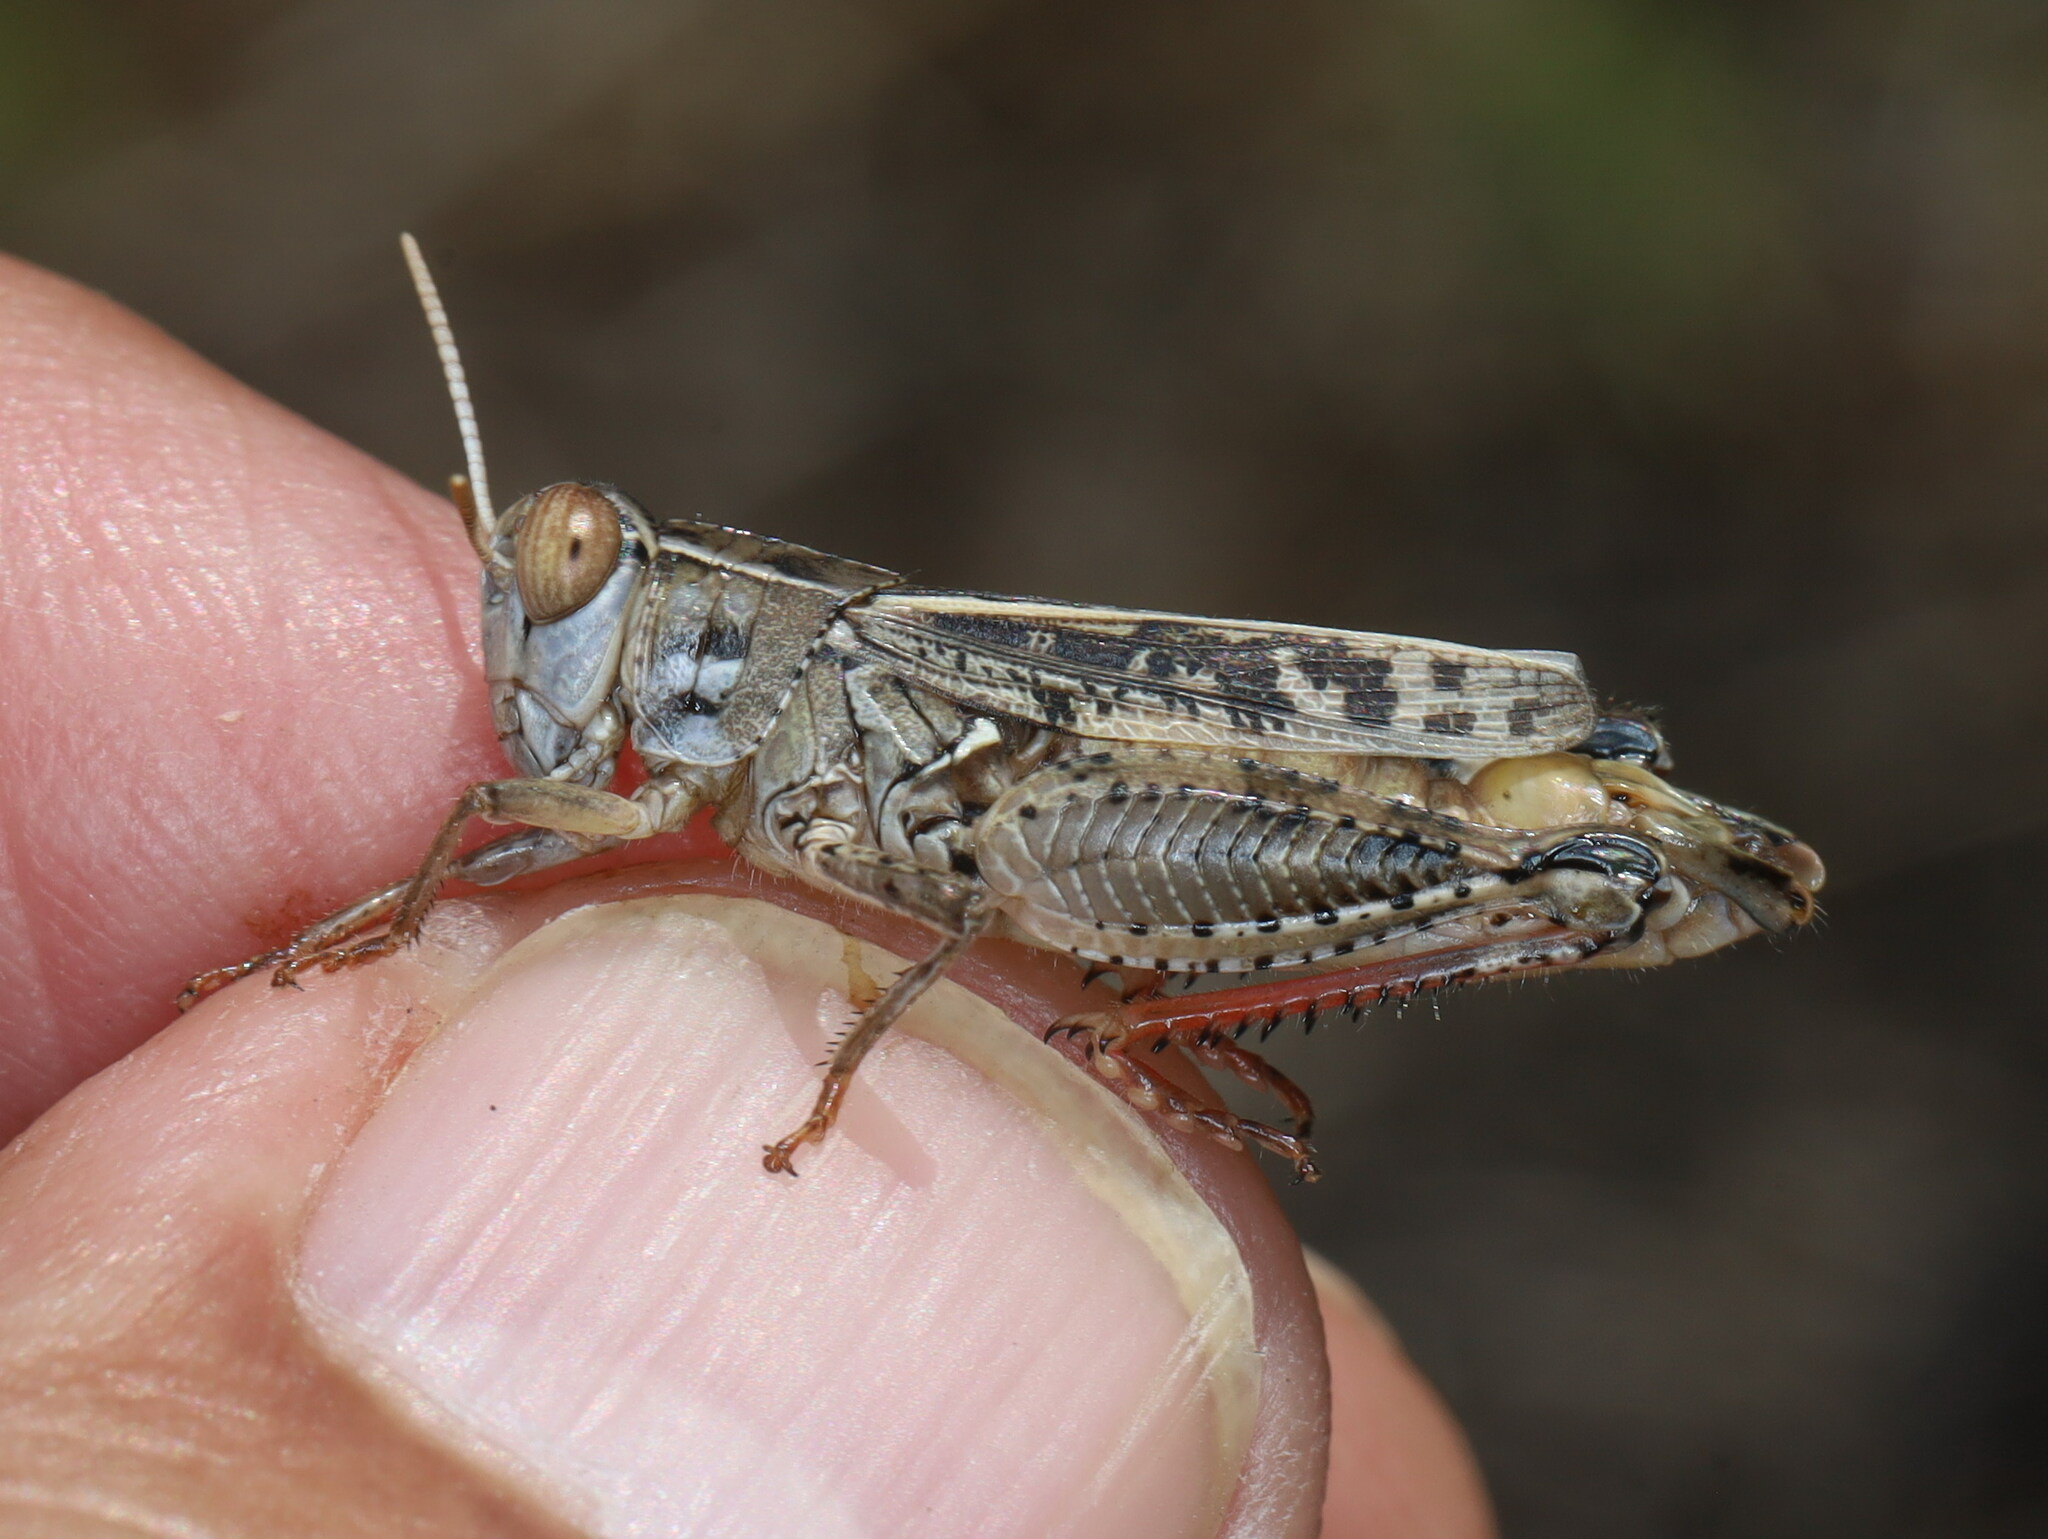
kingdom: Animalia
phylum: Arthropoda
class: Insecta
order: Orthoptera
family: Acrididae
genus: Calliptamus
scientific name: Calliptamus wattenwylianus
